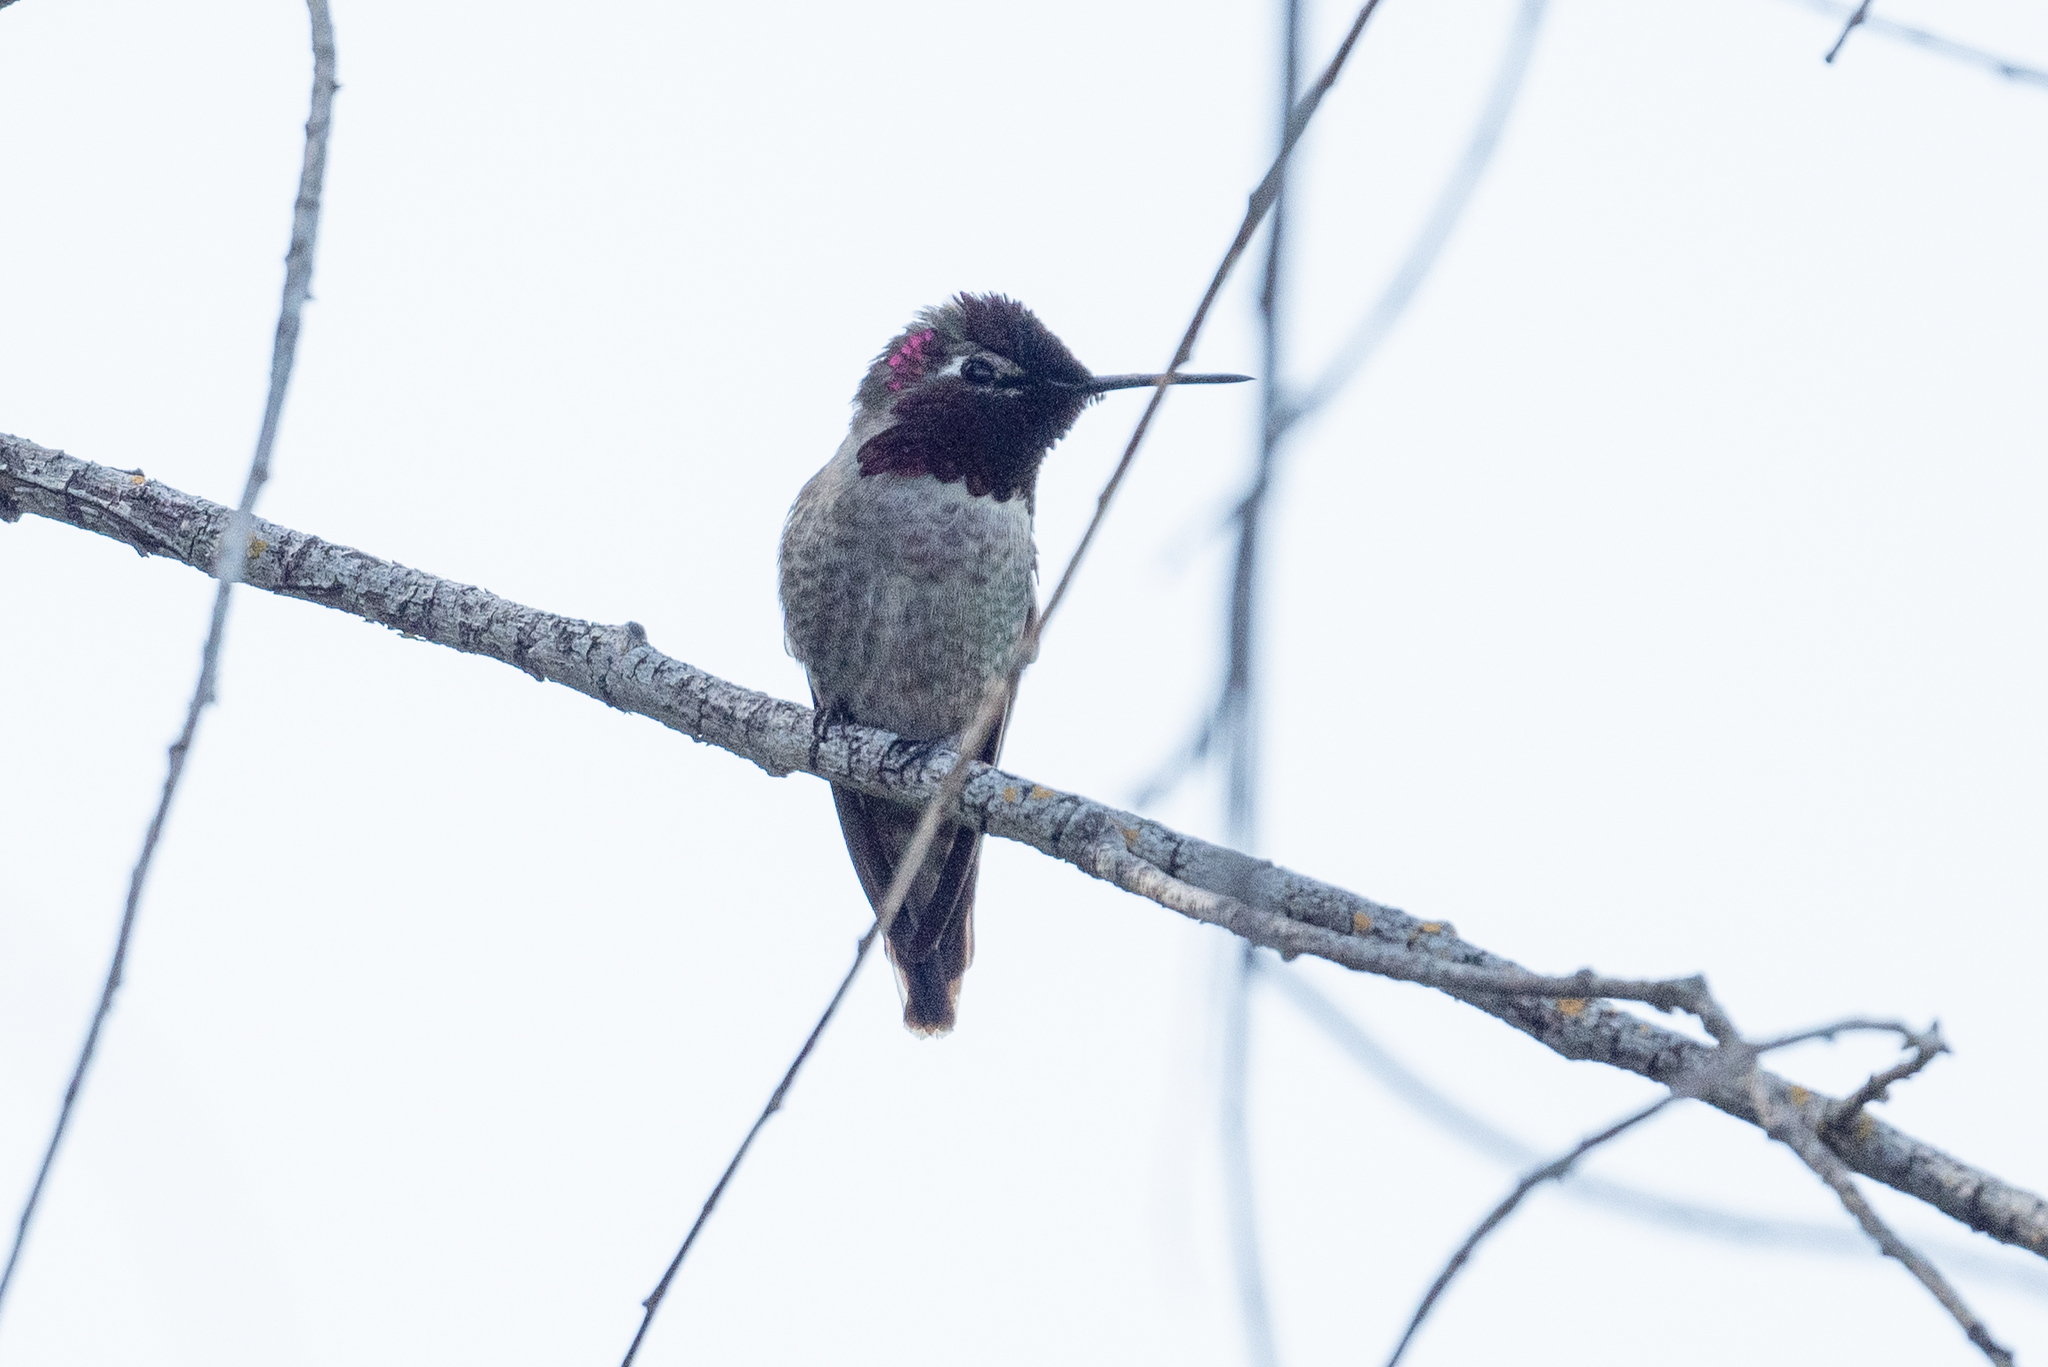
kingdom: Animalia
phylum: Chordata
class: Aves
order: Apodiformes
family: Trochilidae
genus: Calypte
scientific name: Calypte anna
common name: Anna's hummingbird
